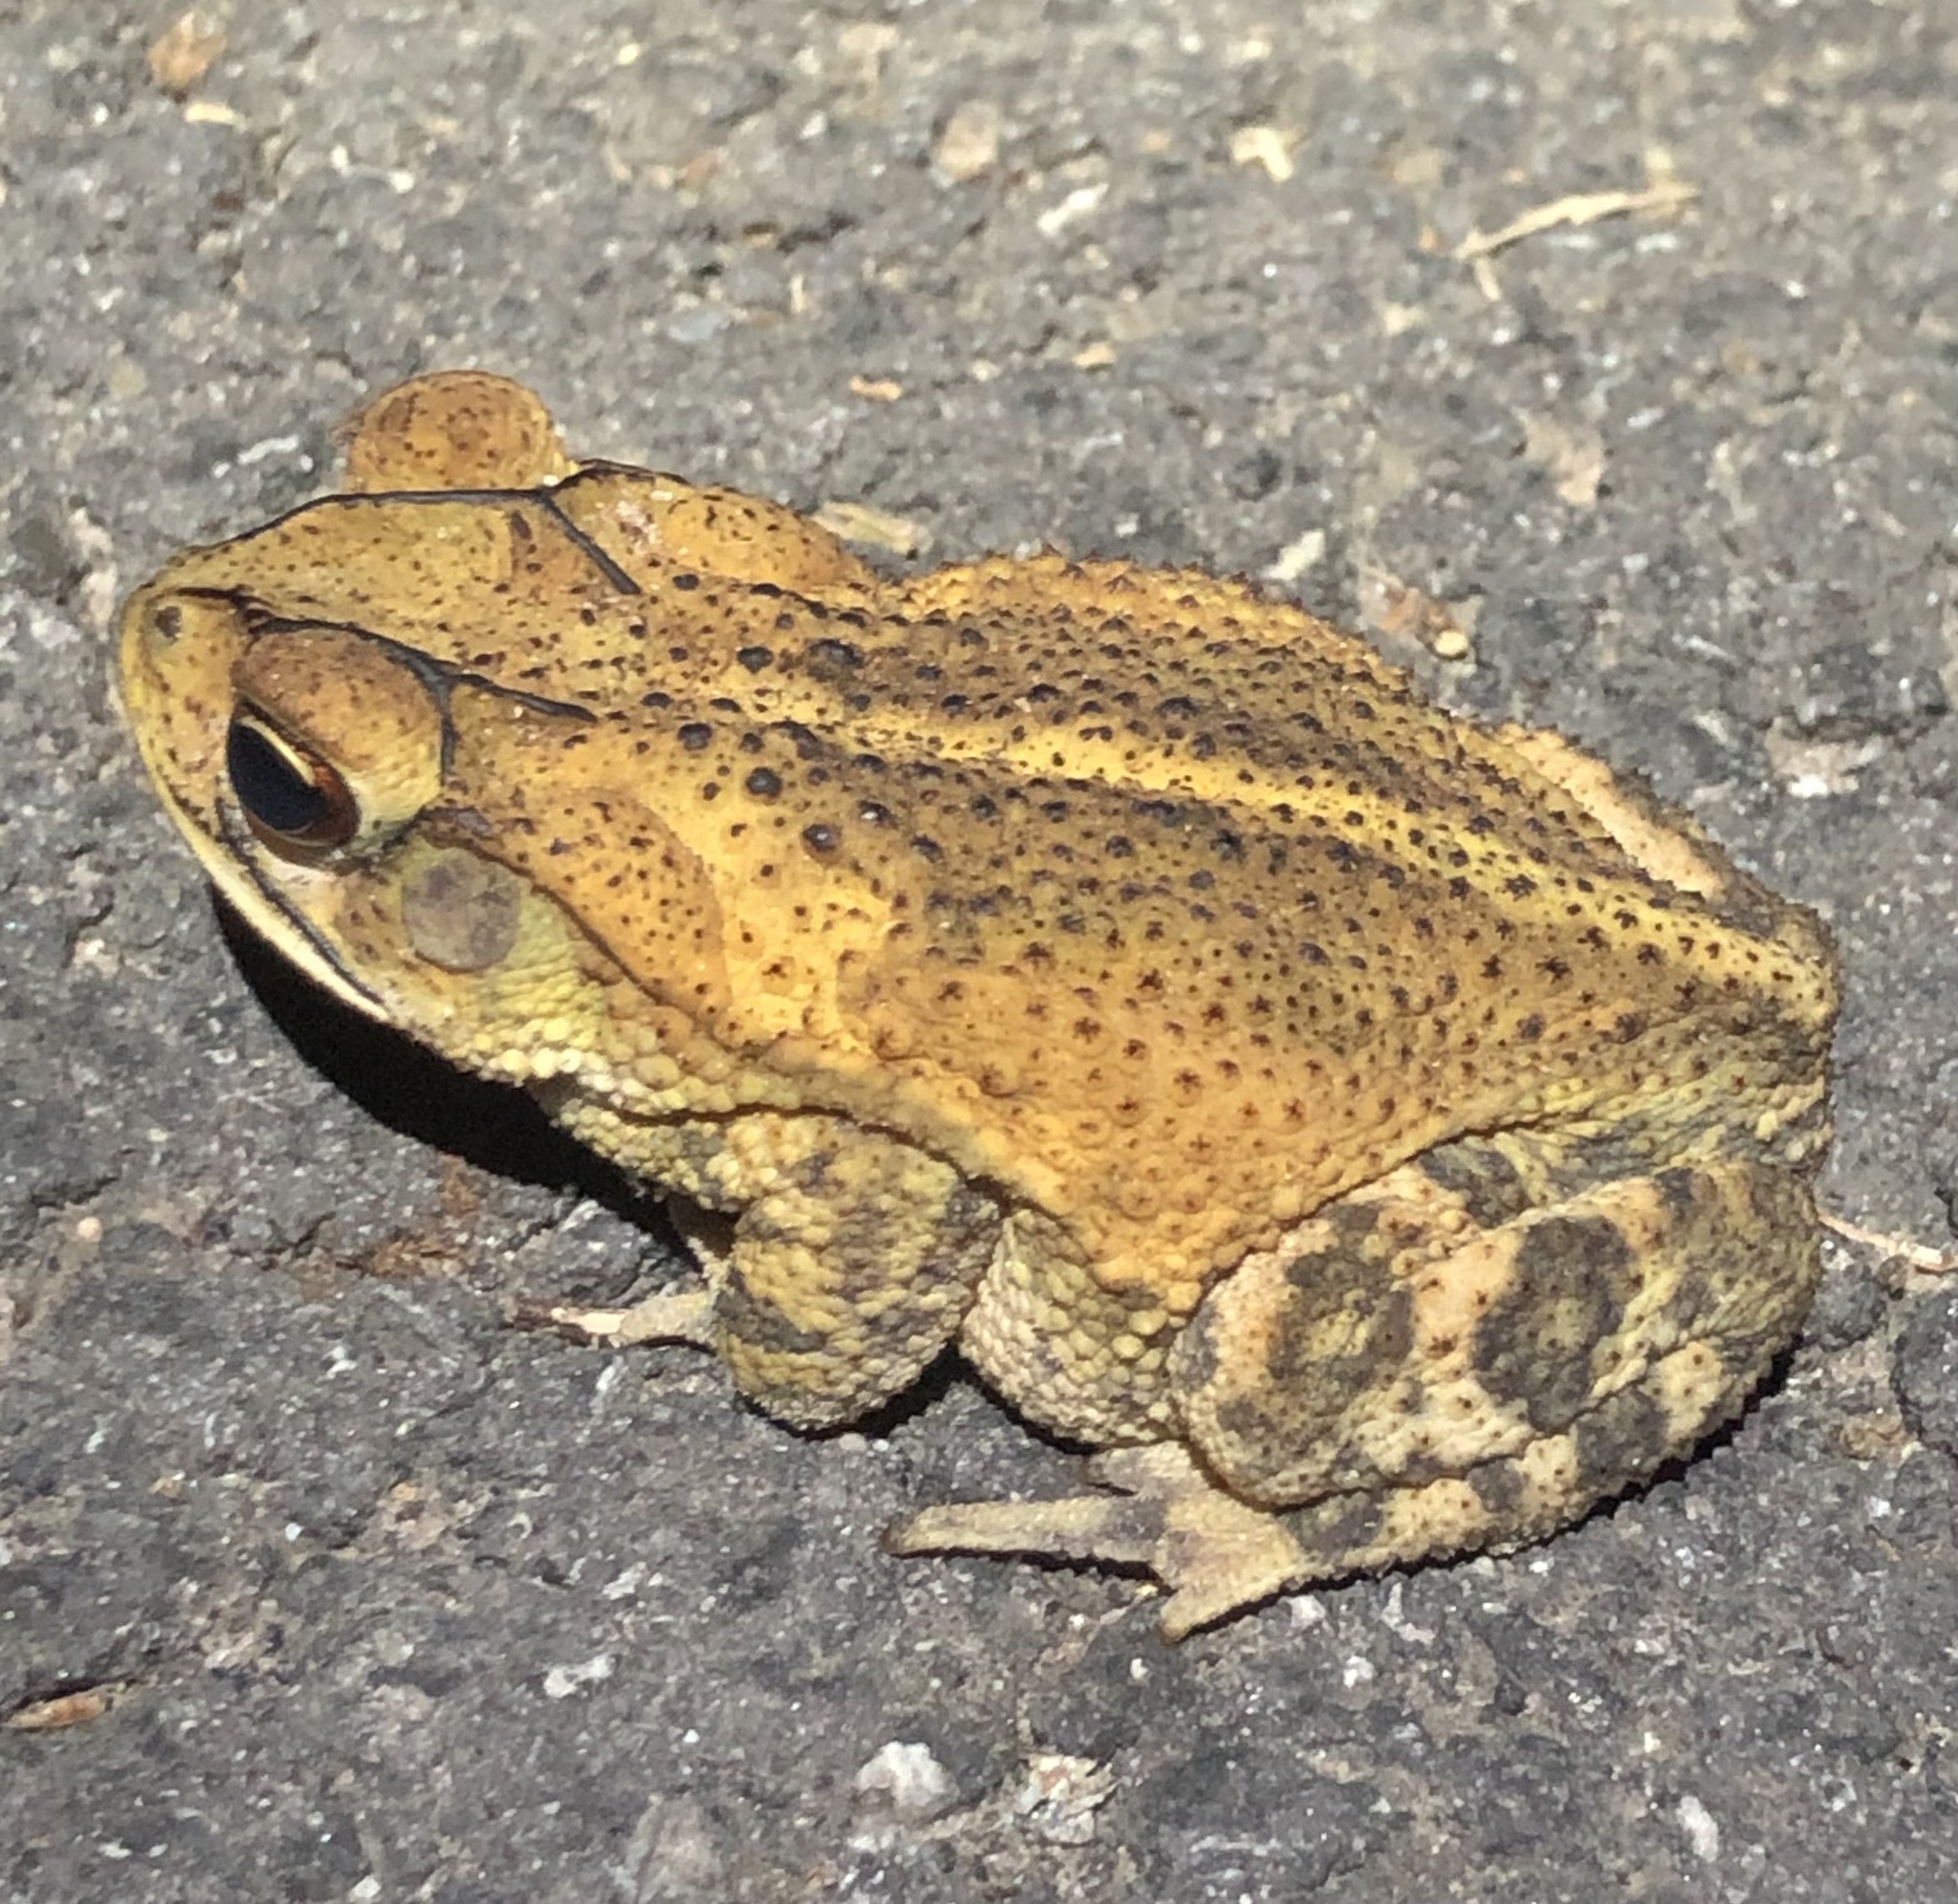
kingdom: Animalia
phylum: Chordata
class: Amphibia
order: Anura
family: Bufonidae
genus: Incilius
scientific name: Incilius nebulifer
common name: Gulf coast toad
